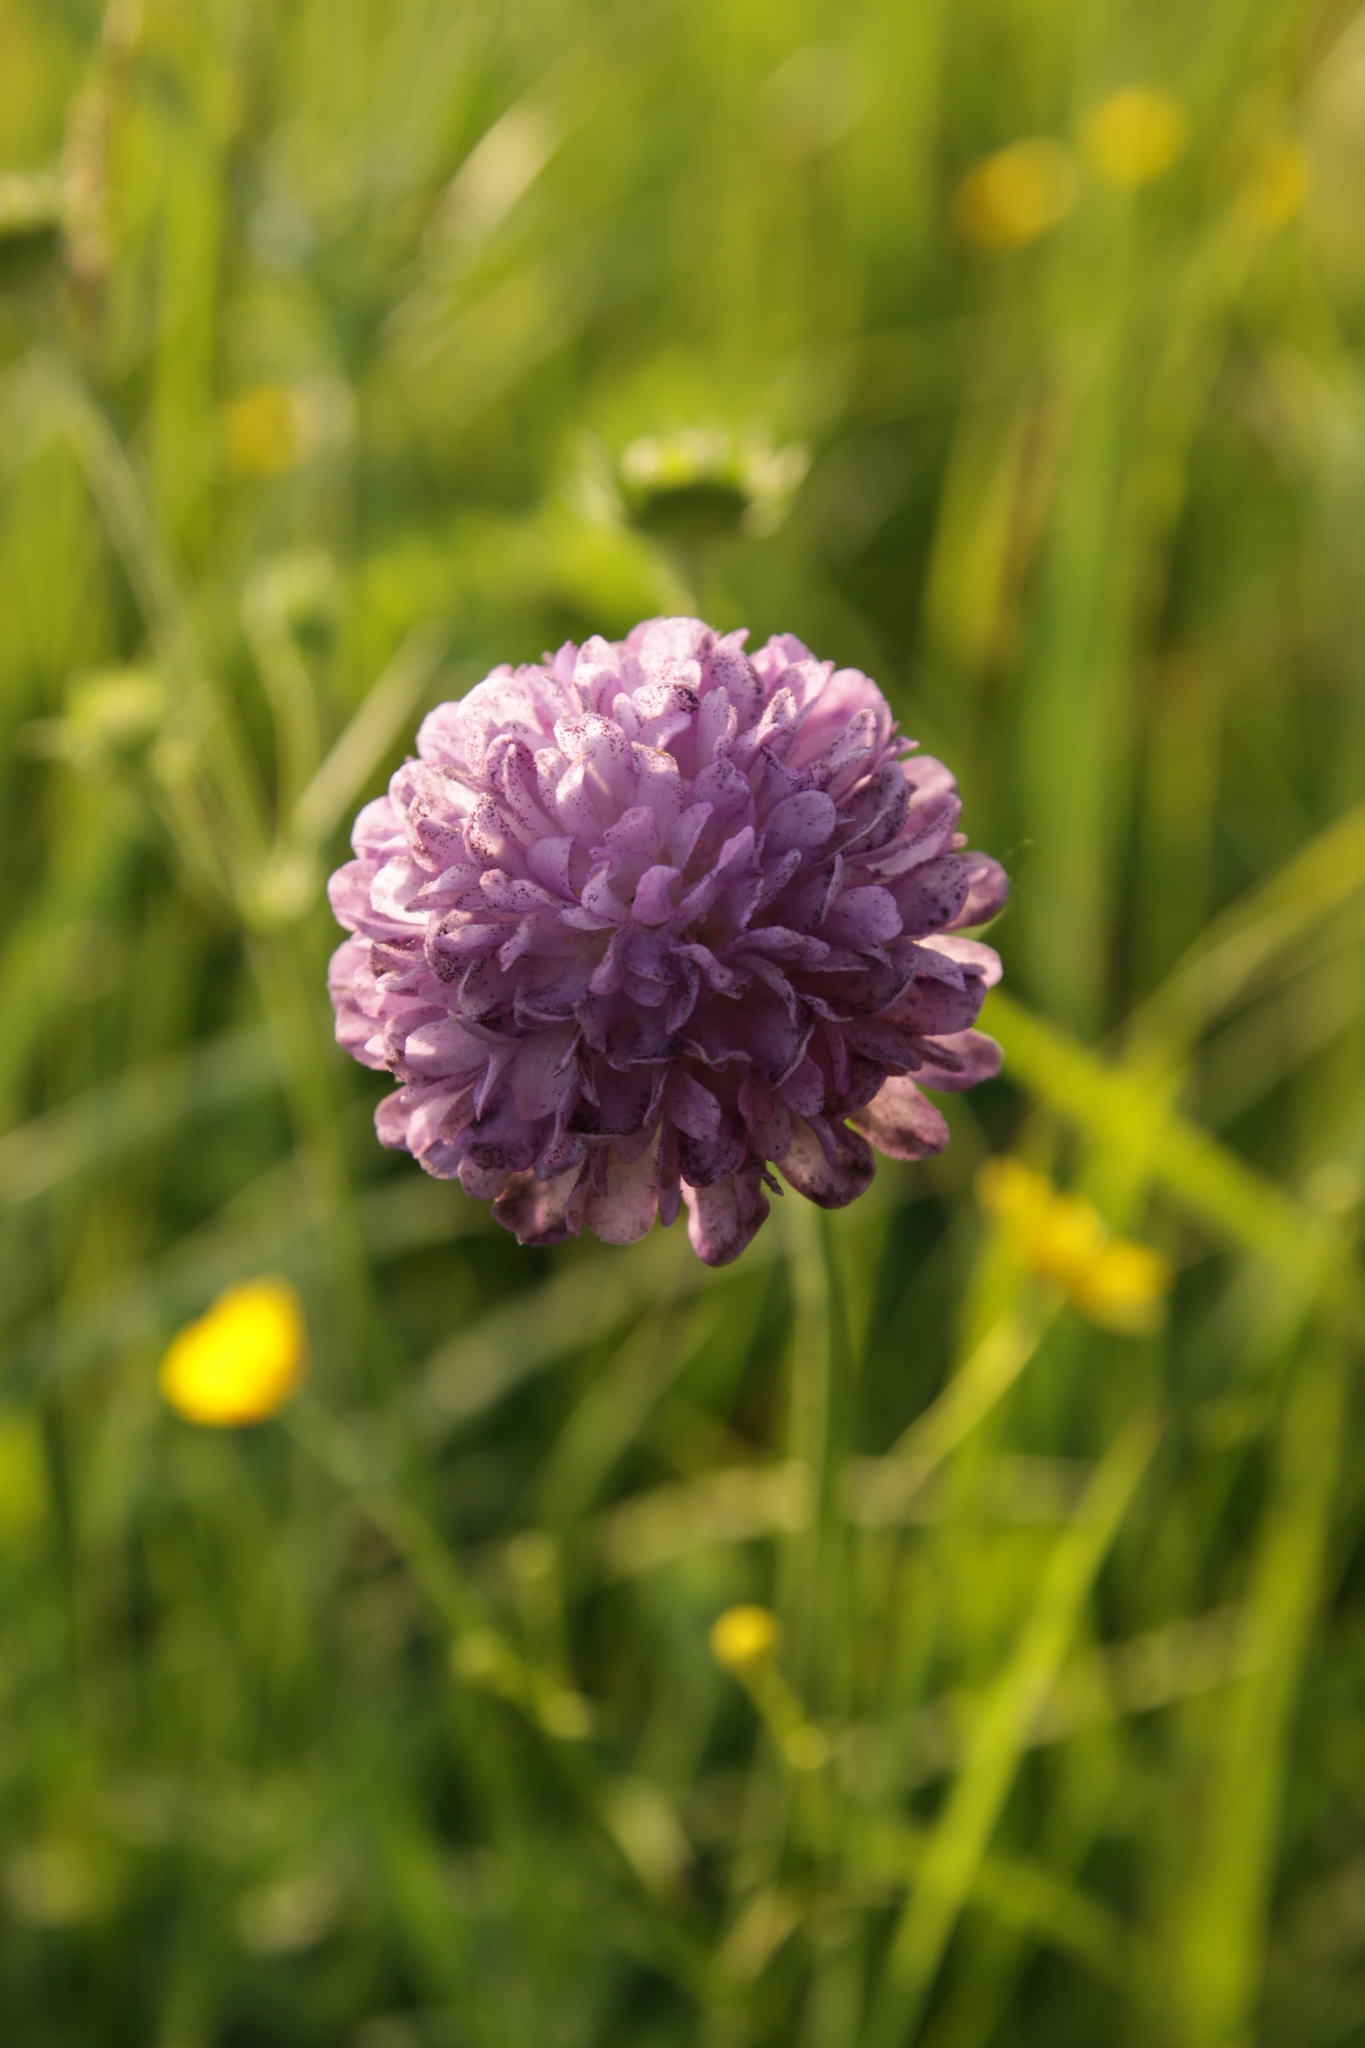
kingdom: Plantae
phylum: Tracheophyta
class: Magnoliopsida
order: Dipsacales
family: Caprifoliaceae
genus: Knautia
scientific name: Knautia arvensis
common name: Field scabiosa
